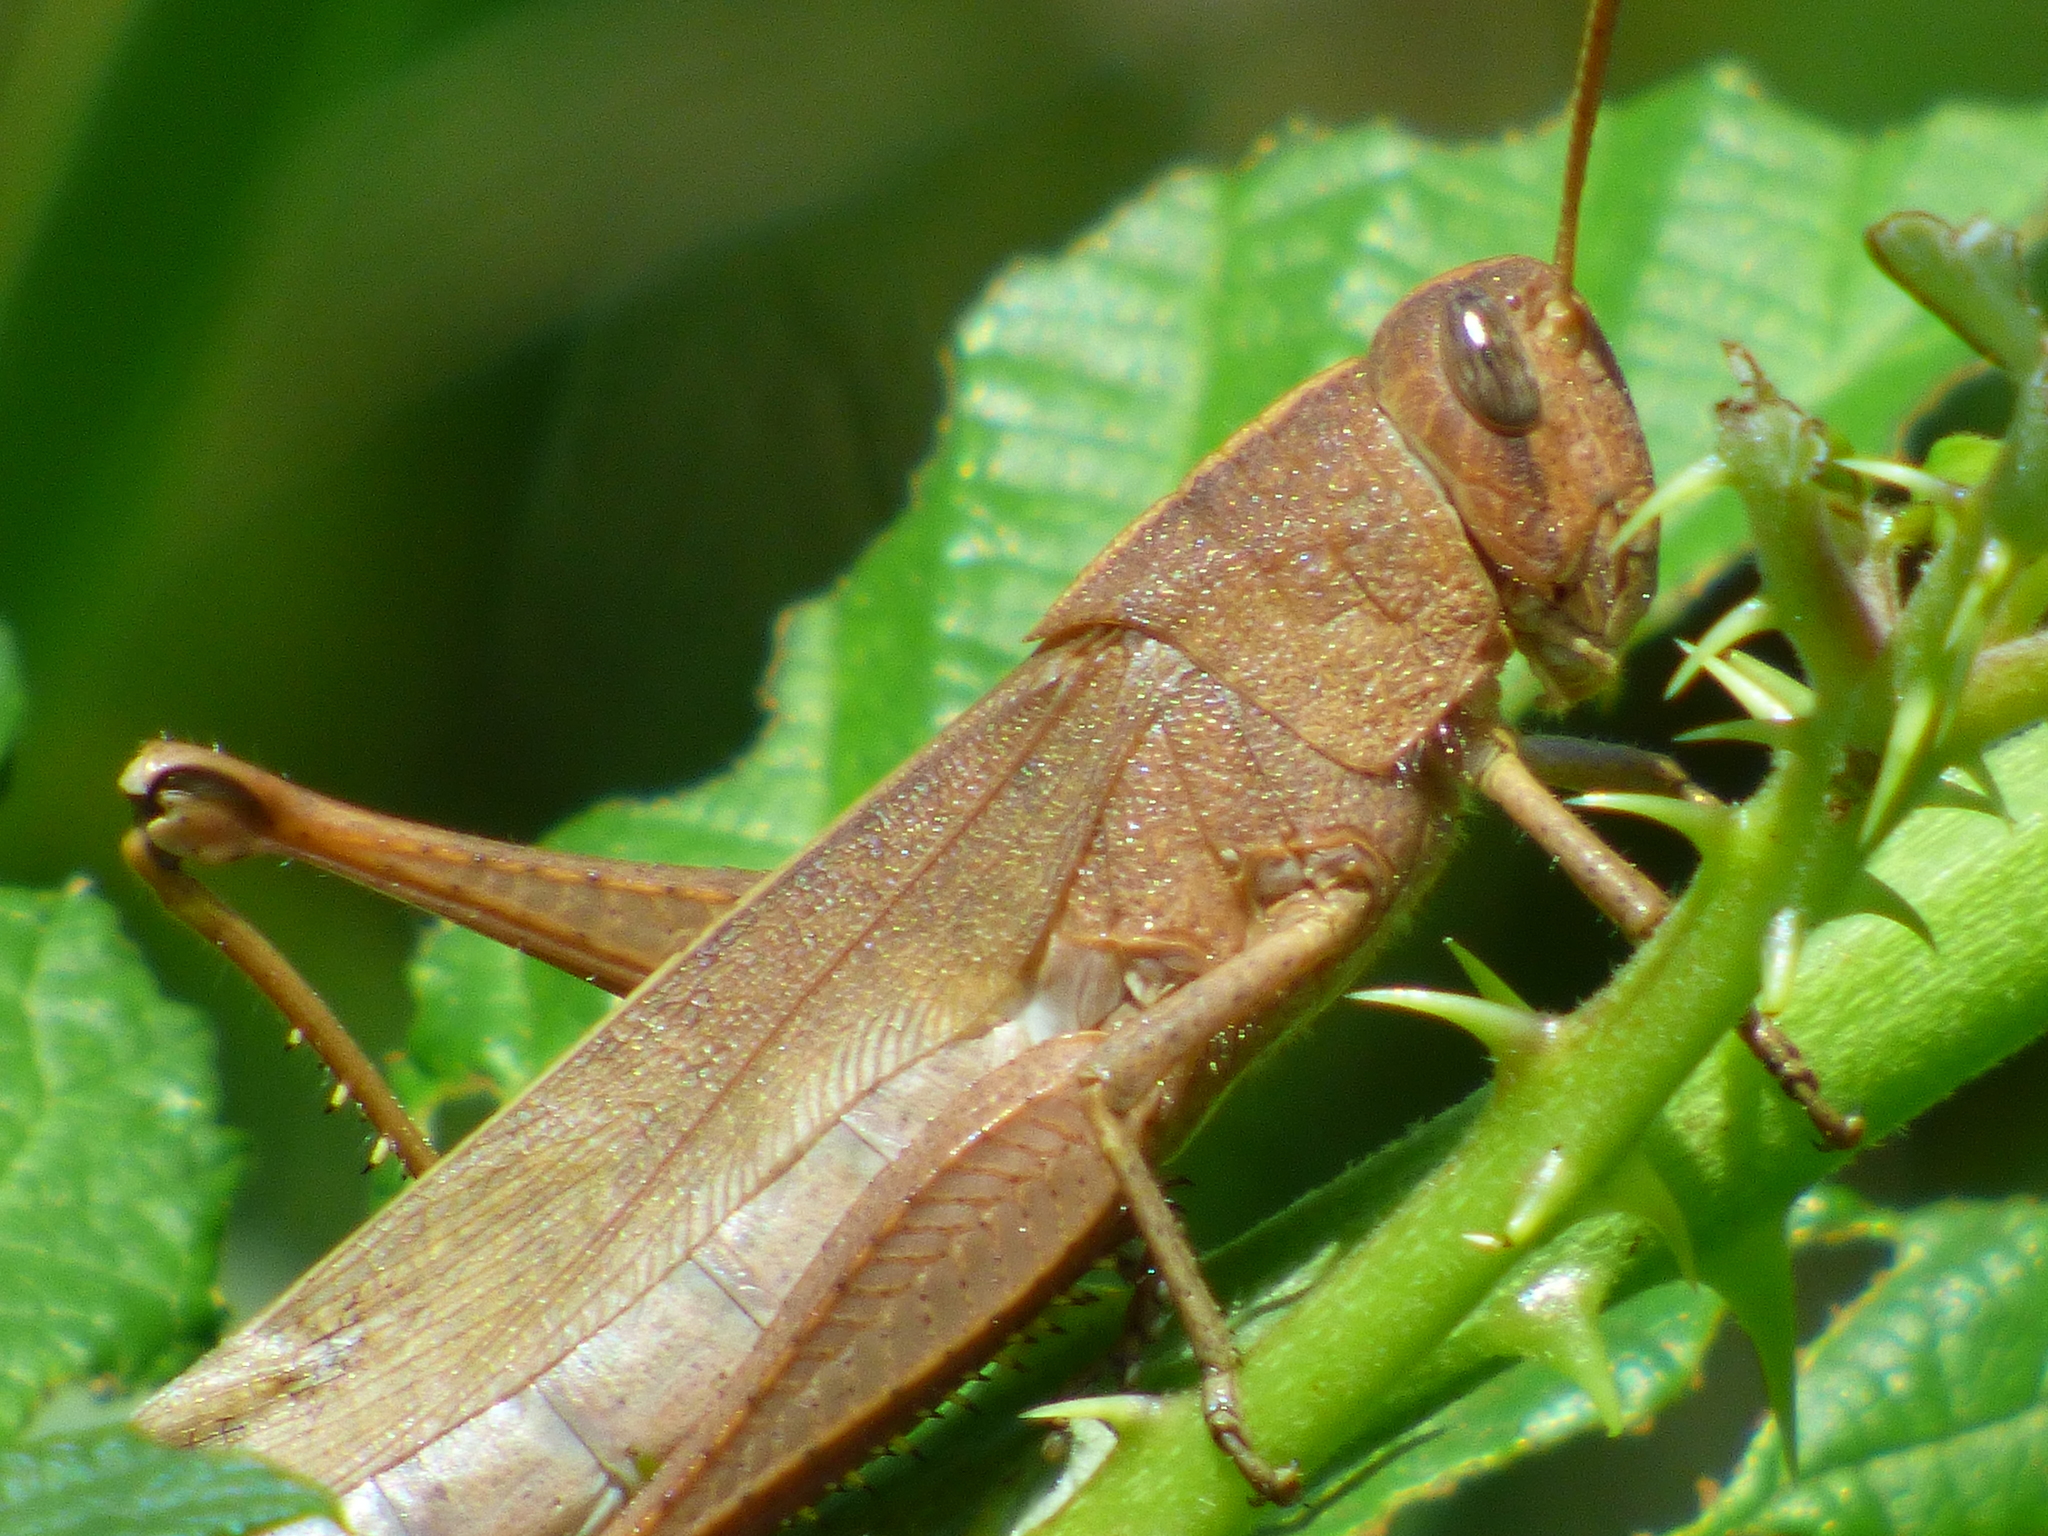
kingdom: Animalia
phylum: Arthropoda
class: Insecta
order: Orthoptera
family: Acrididae
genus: Schistocerca
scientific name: Schistocerca damnifica
